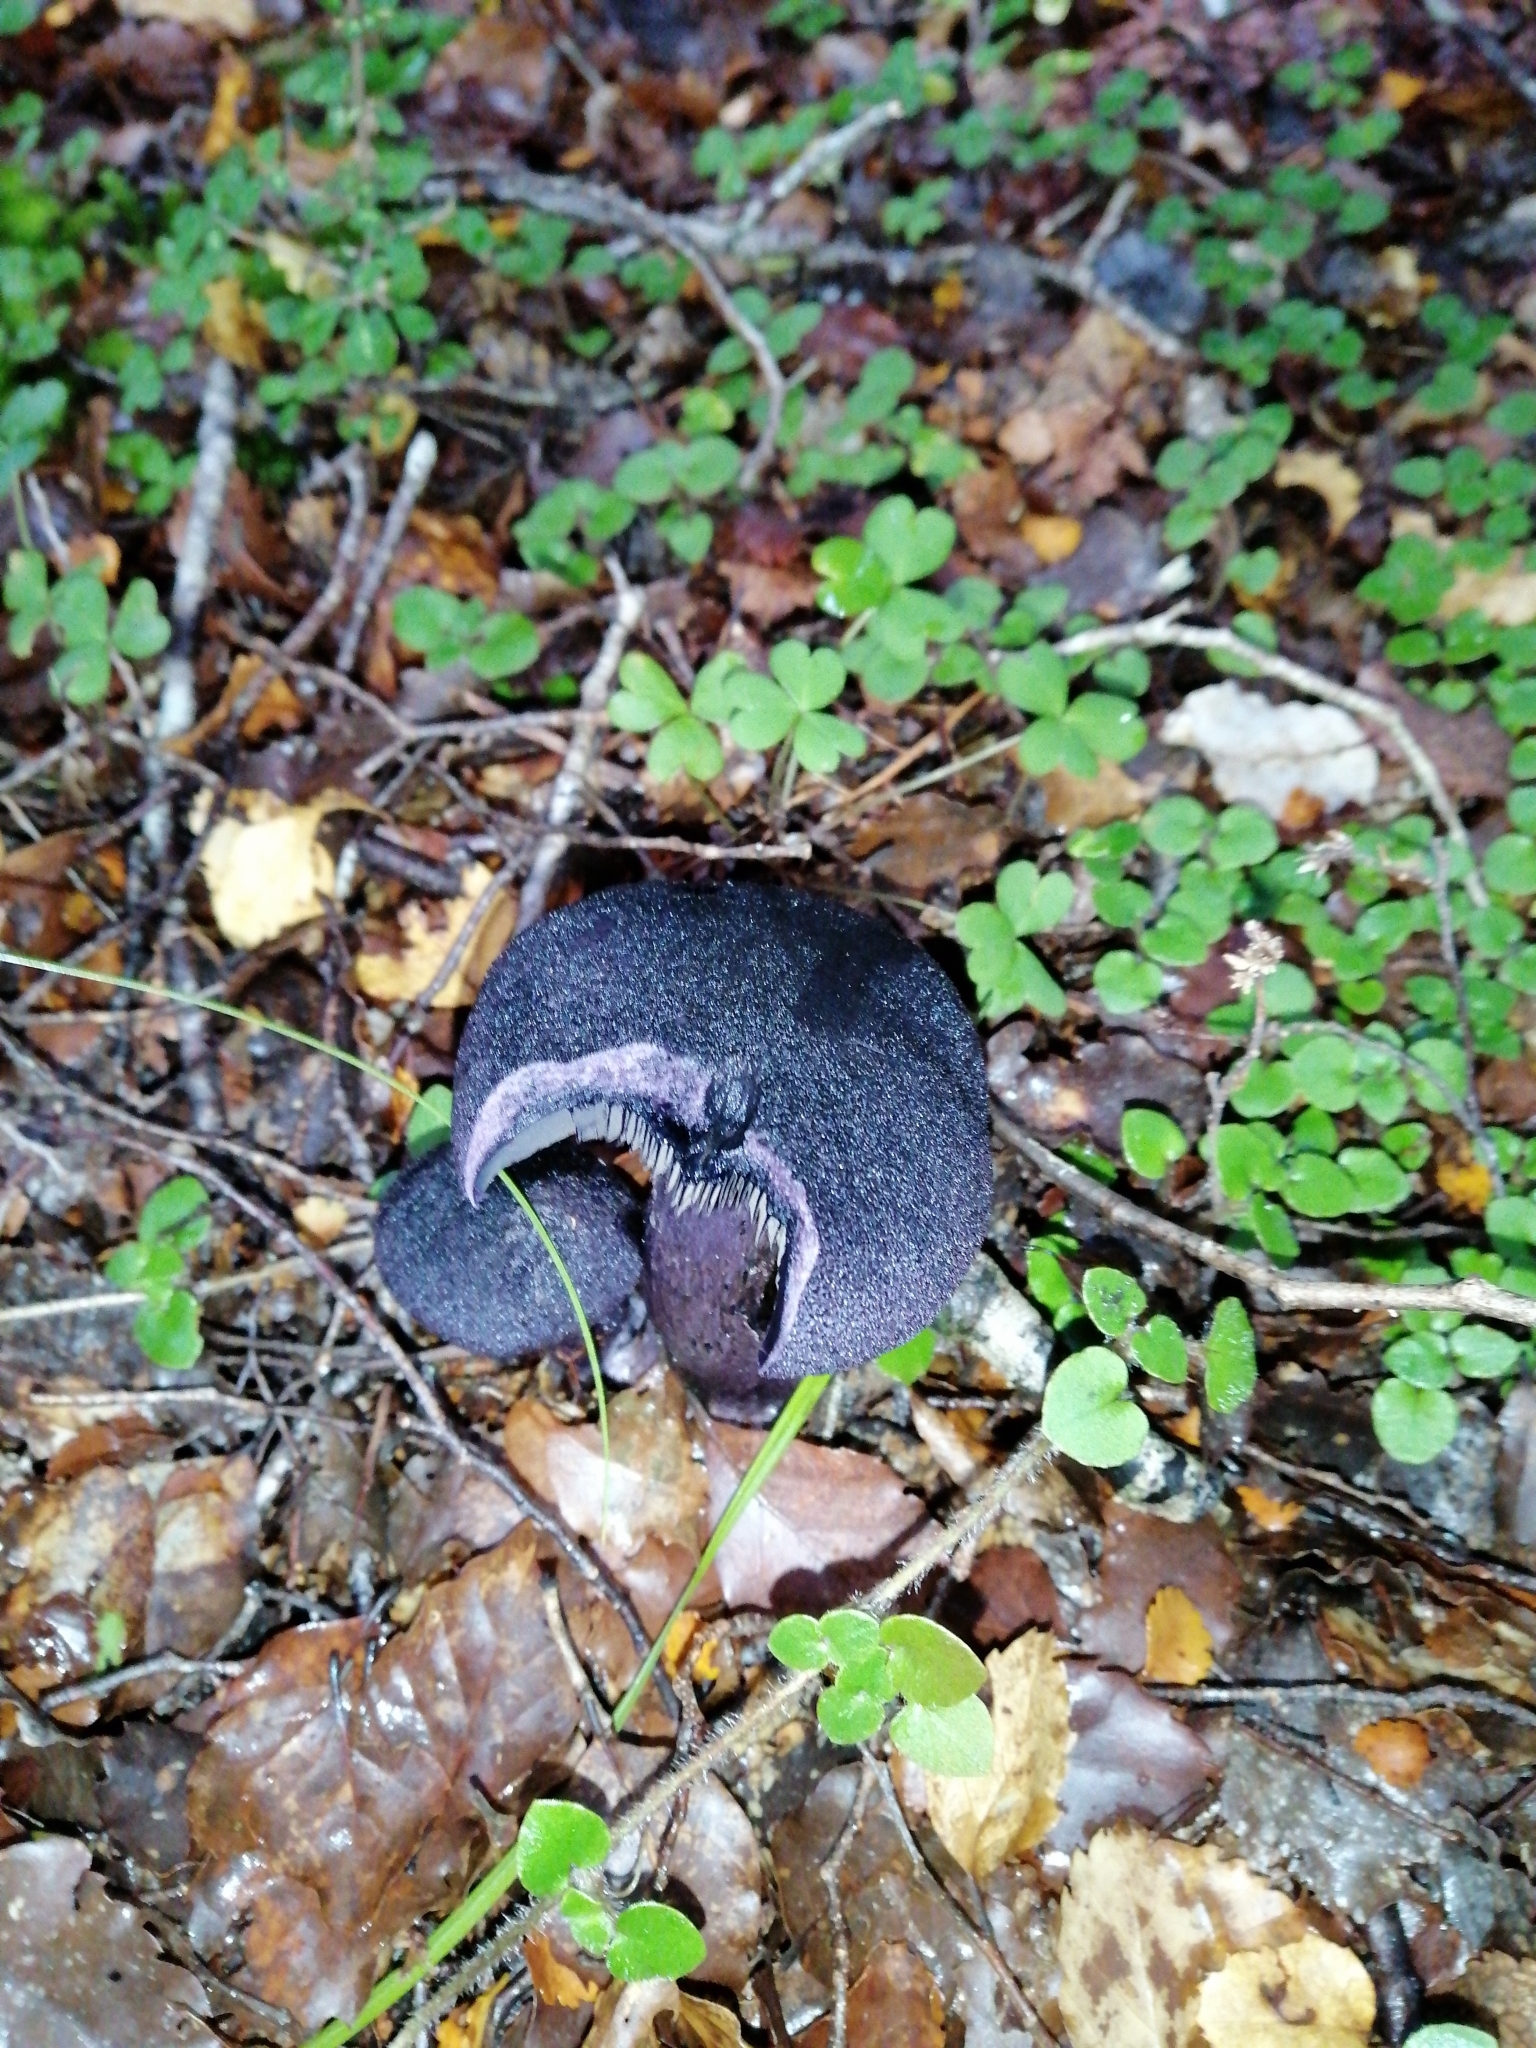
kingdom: Fungi
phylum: Basidiomycota
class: Agaricomycetes
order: Agaricales
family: Cortinariaceae
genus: Cortinarius
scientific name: Cortinarius carneipallidus
